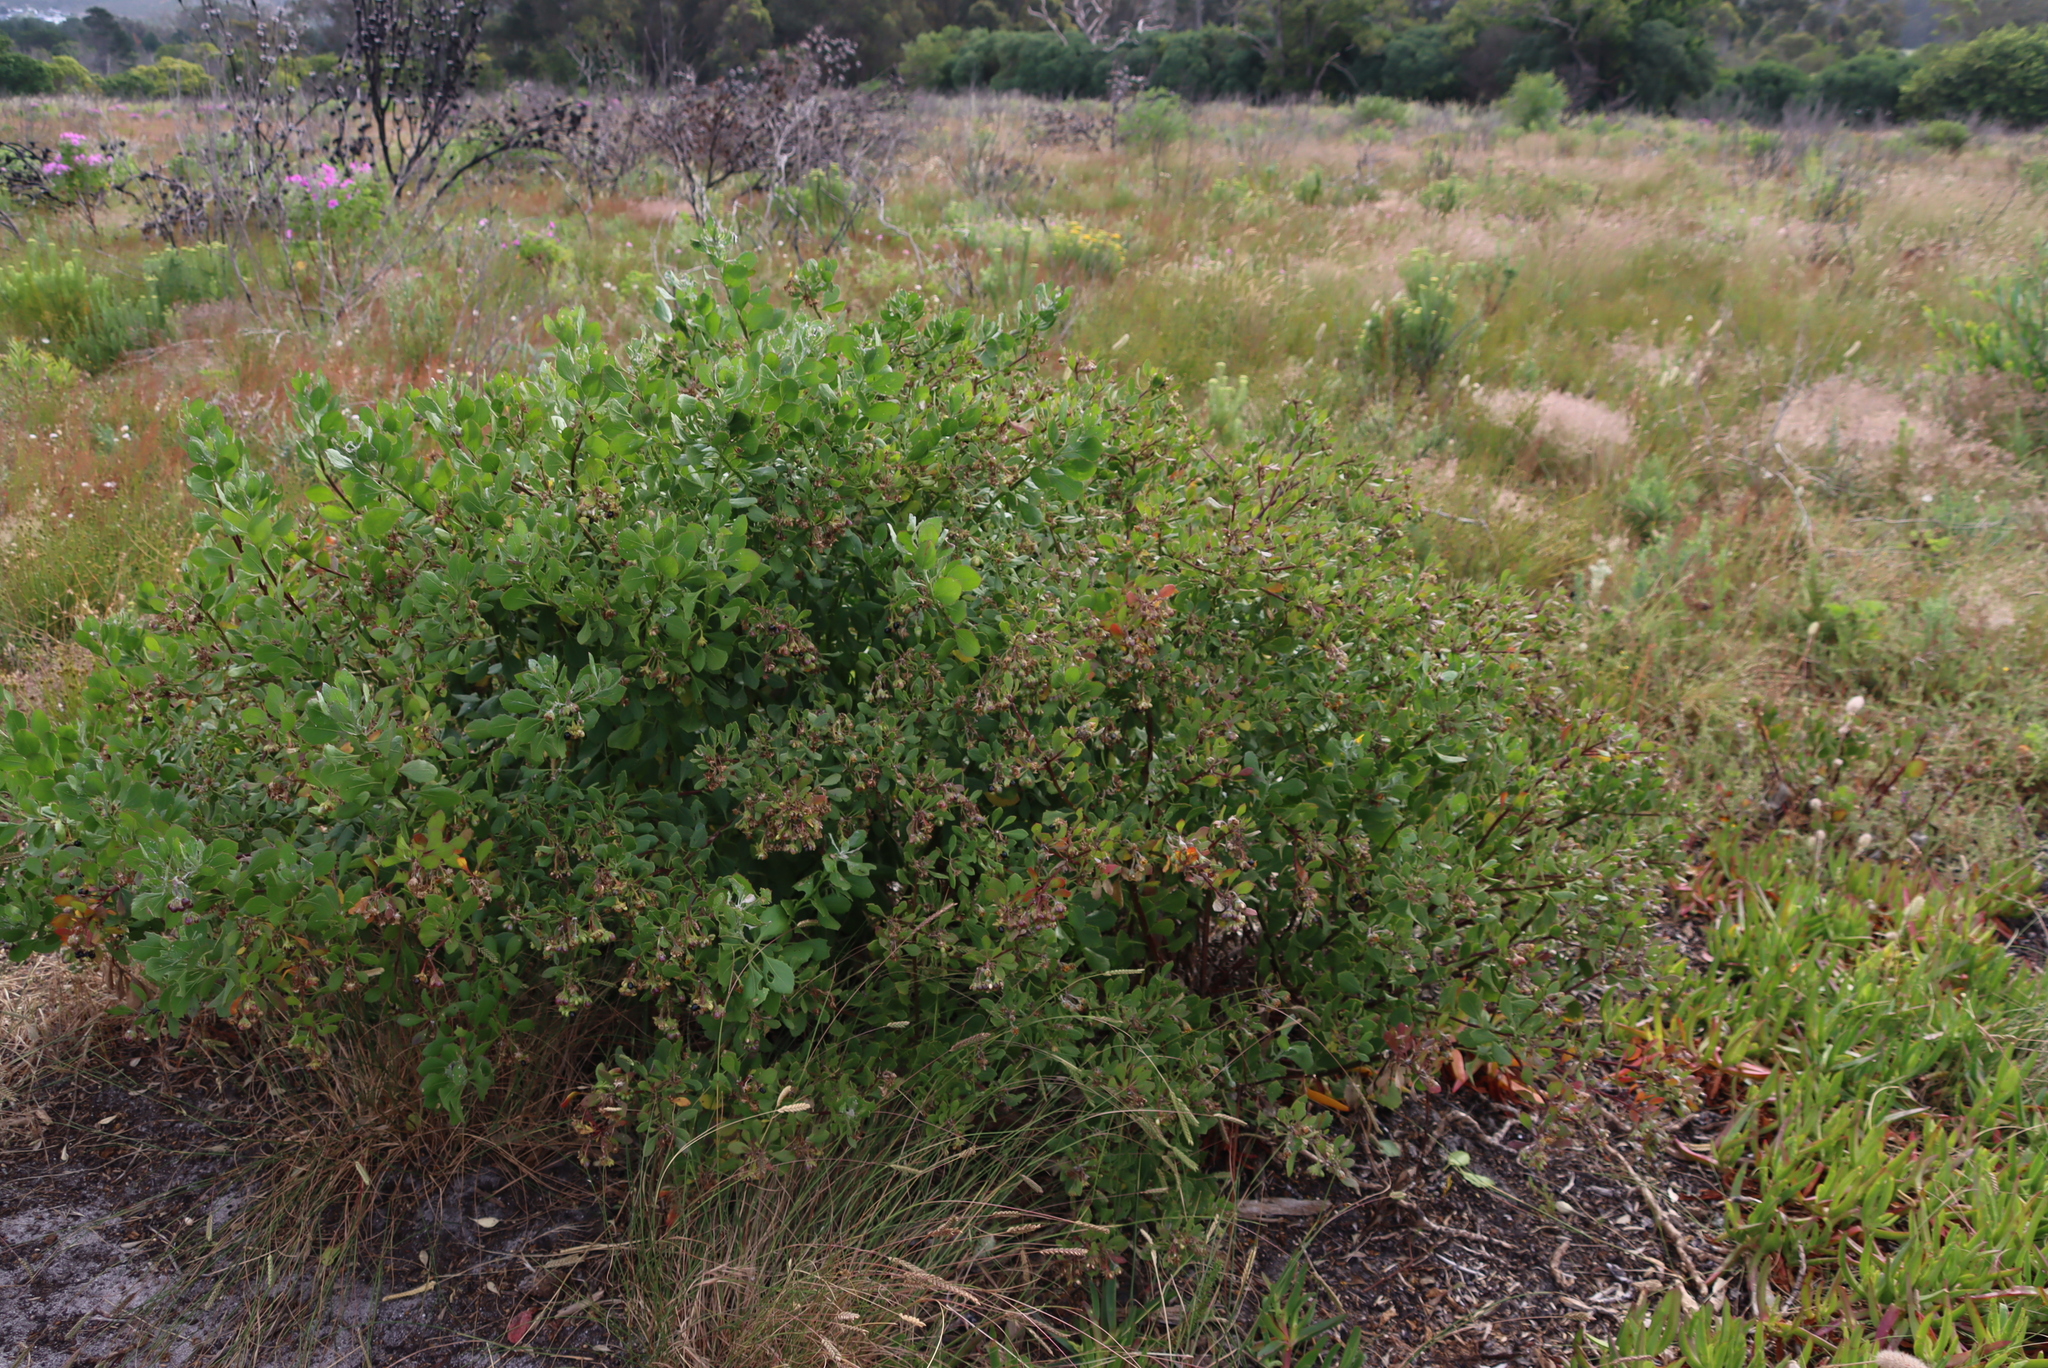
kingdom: Plantae
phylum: Tracheophyta
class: Magnoliopsida
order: Asterales
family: Asteraceae
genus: Osteospermum
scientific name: Osteospermum moniliferum
